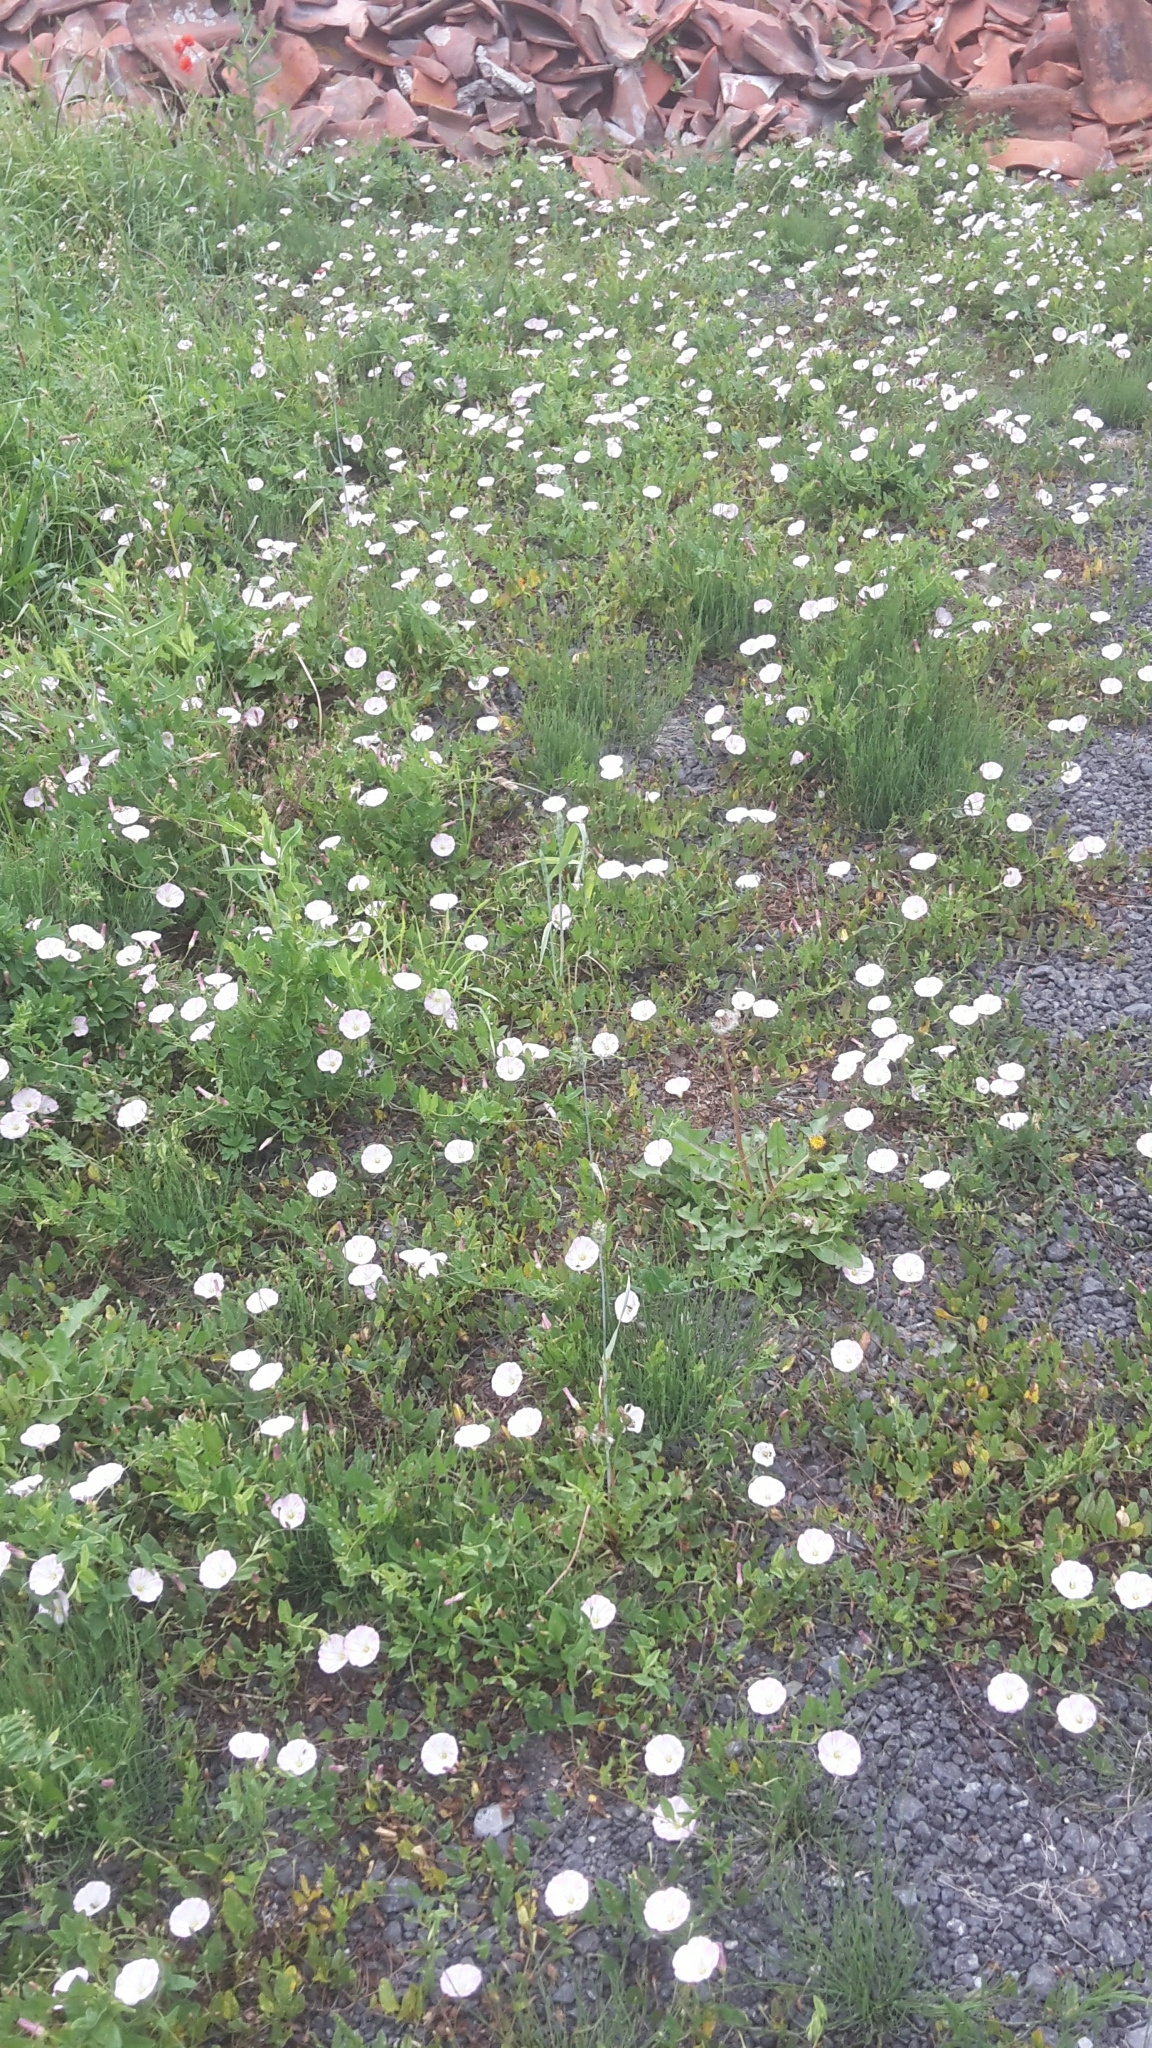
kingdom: Plantae
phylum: Tracheophyta
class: Magnoliopsida
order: Solanales
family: Convolvulaceae
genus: Convolvulus
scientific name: Convolvulus arvensis
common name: Field bindweed
